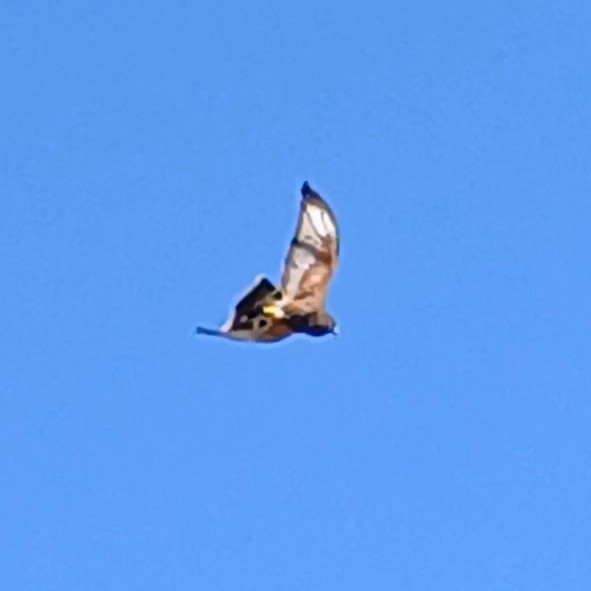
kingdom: Animalia
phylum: Chordata
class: Aves
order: Accipitriformes
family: Accipitridae
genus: Parabuteo
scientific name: Parabuteo unicinctus
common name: Harris's hawk
